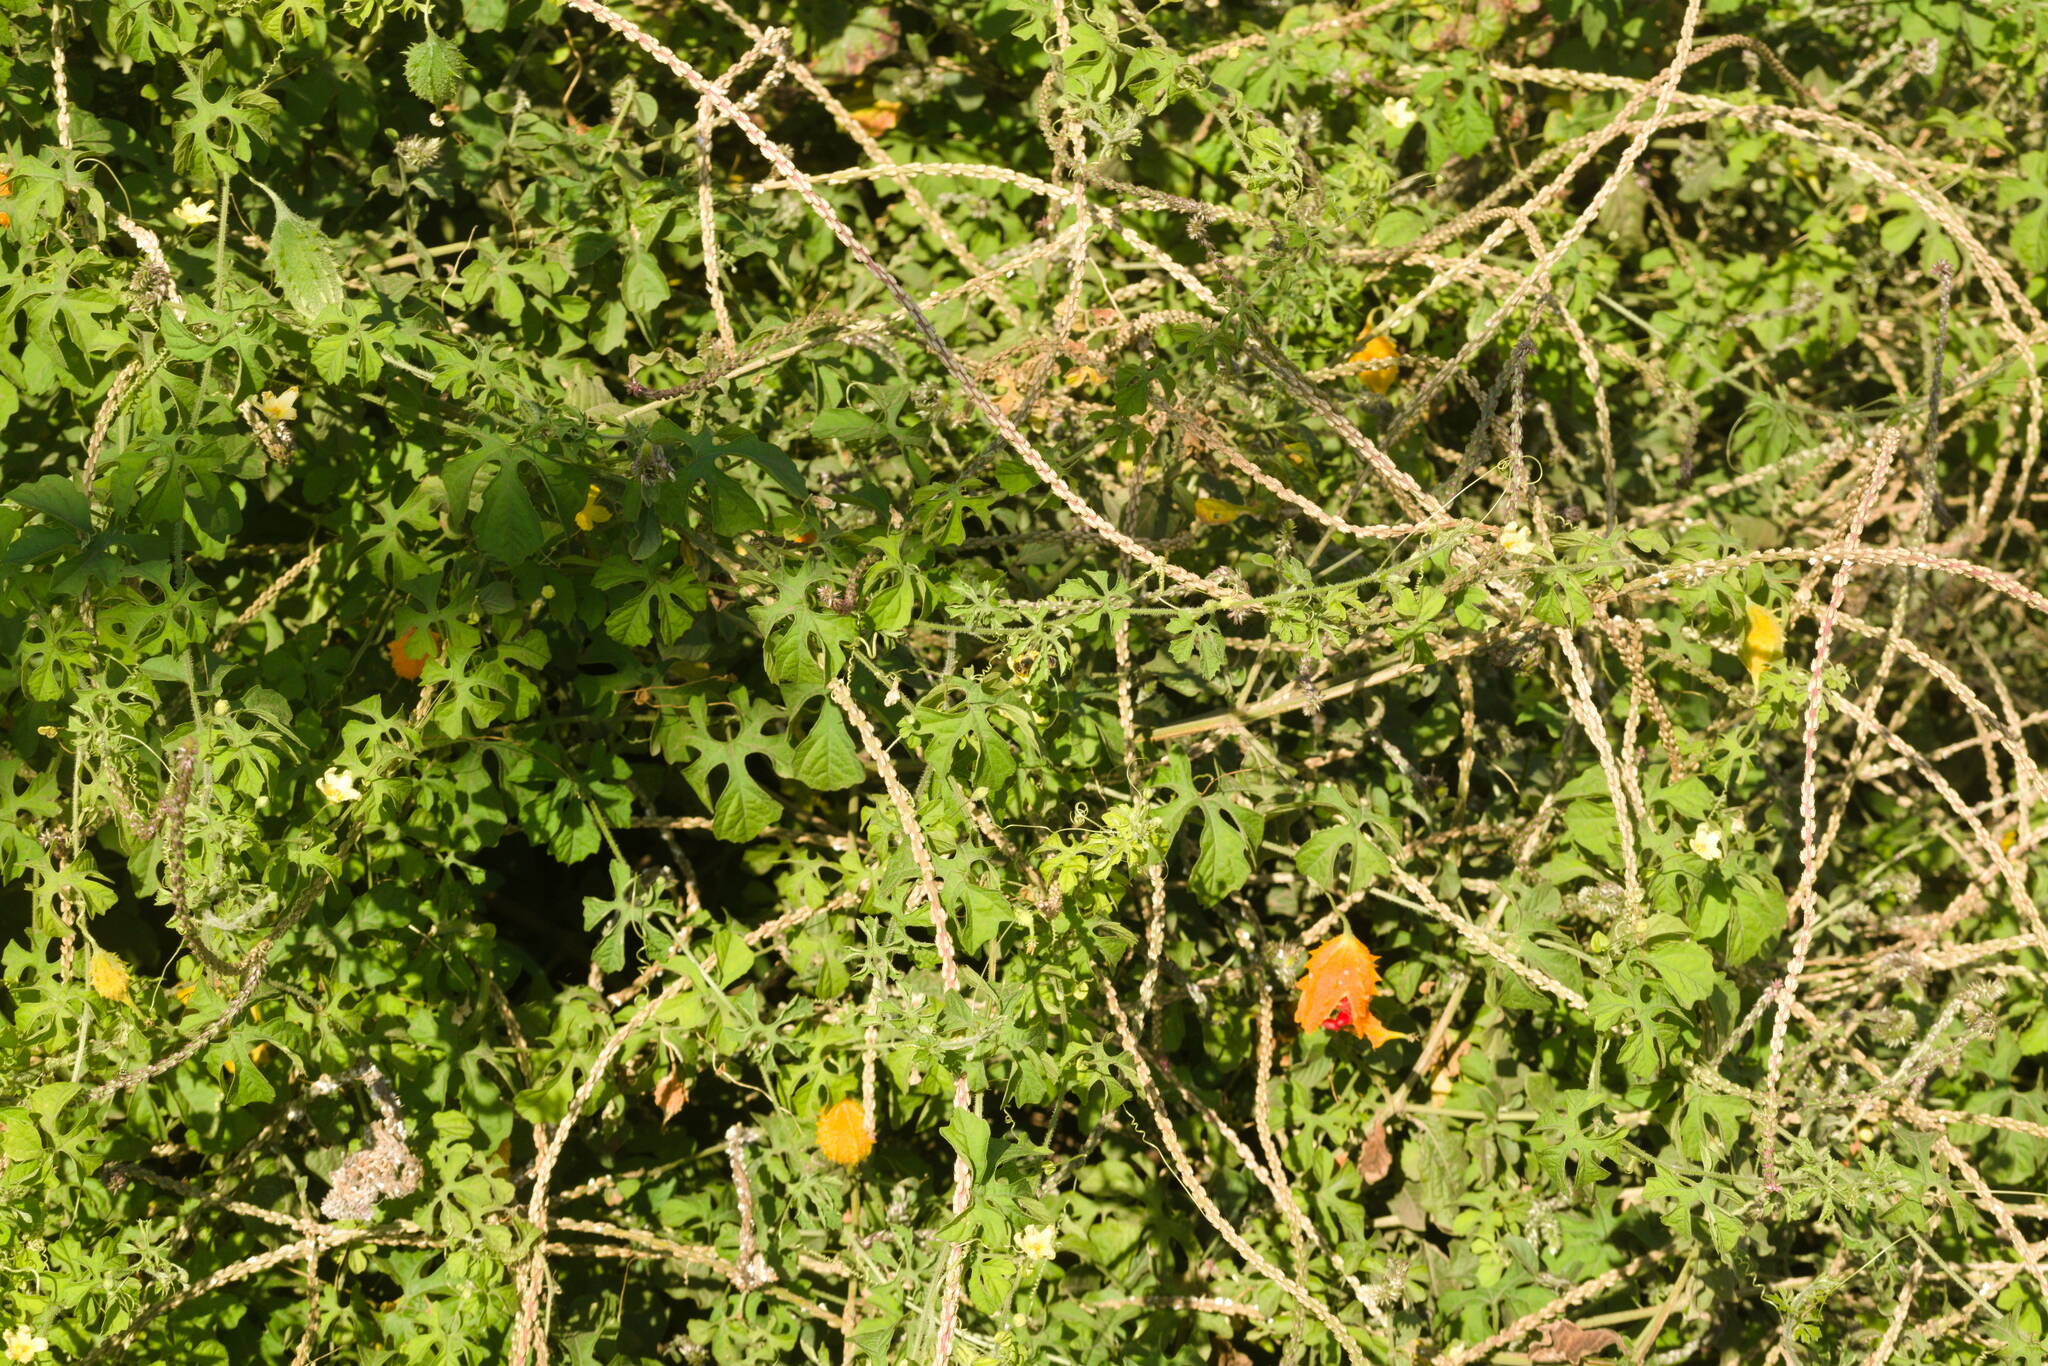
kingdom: Plantae
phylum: Tracheophyta
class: Magnoliopsida
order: Cucurbitales
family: Cucurbitaceae
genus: Momordica
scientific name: Momordica charantia
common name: Balsampear
